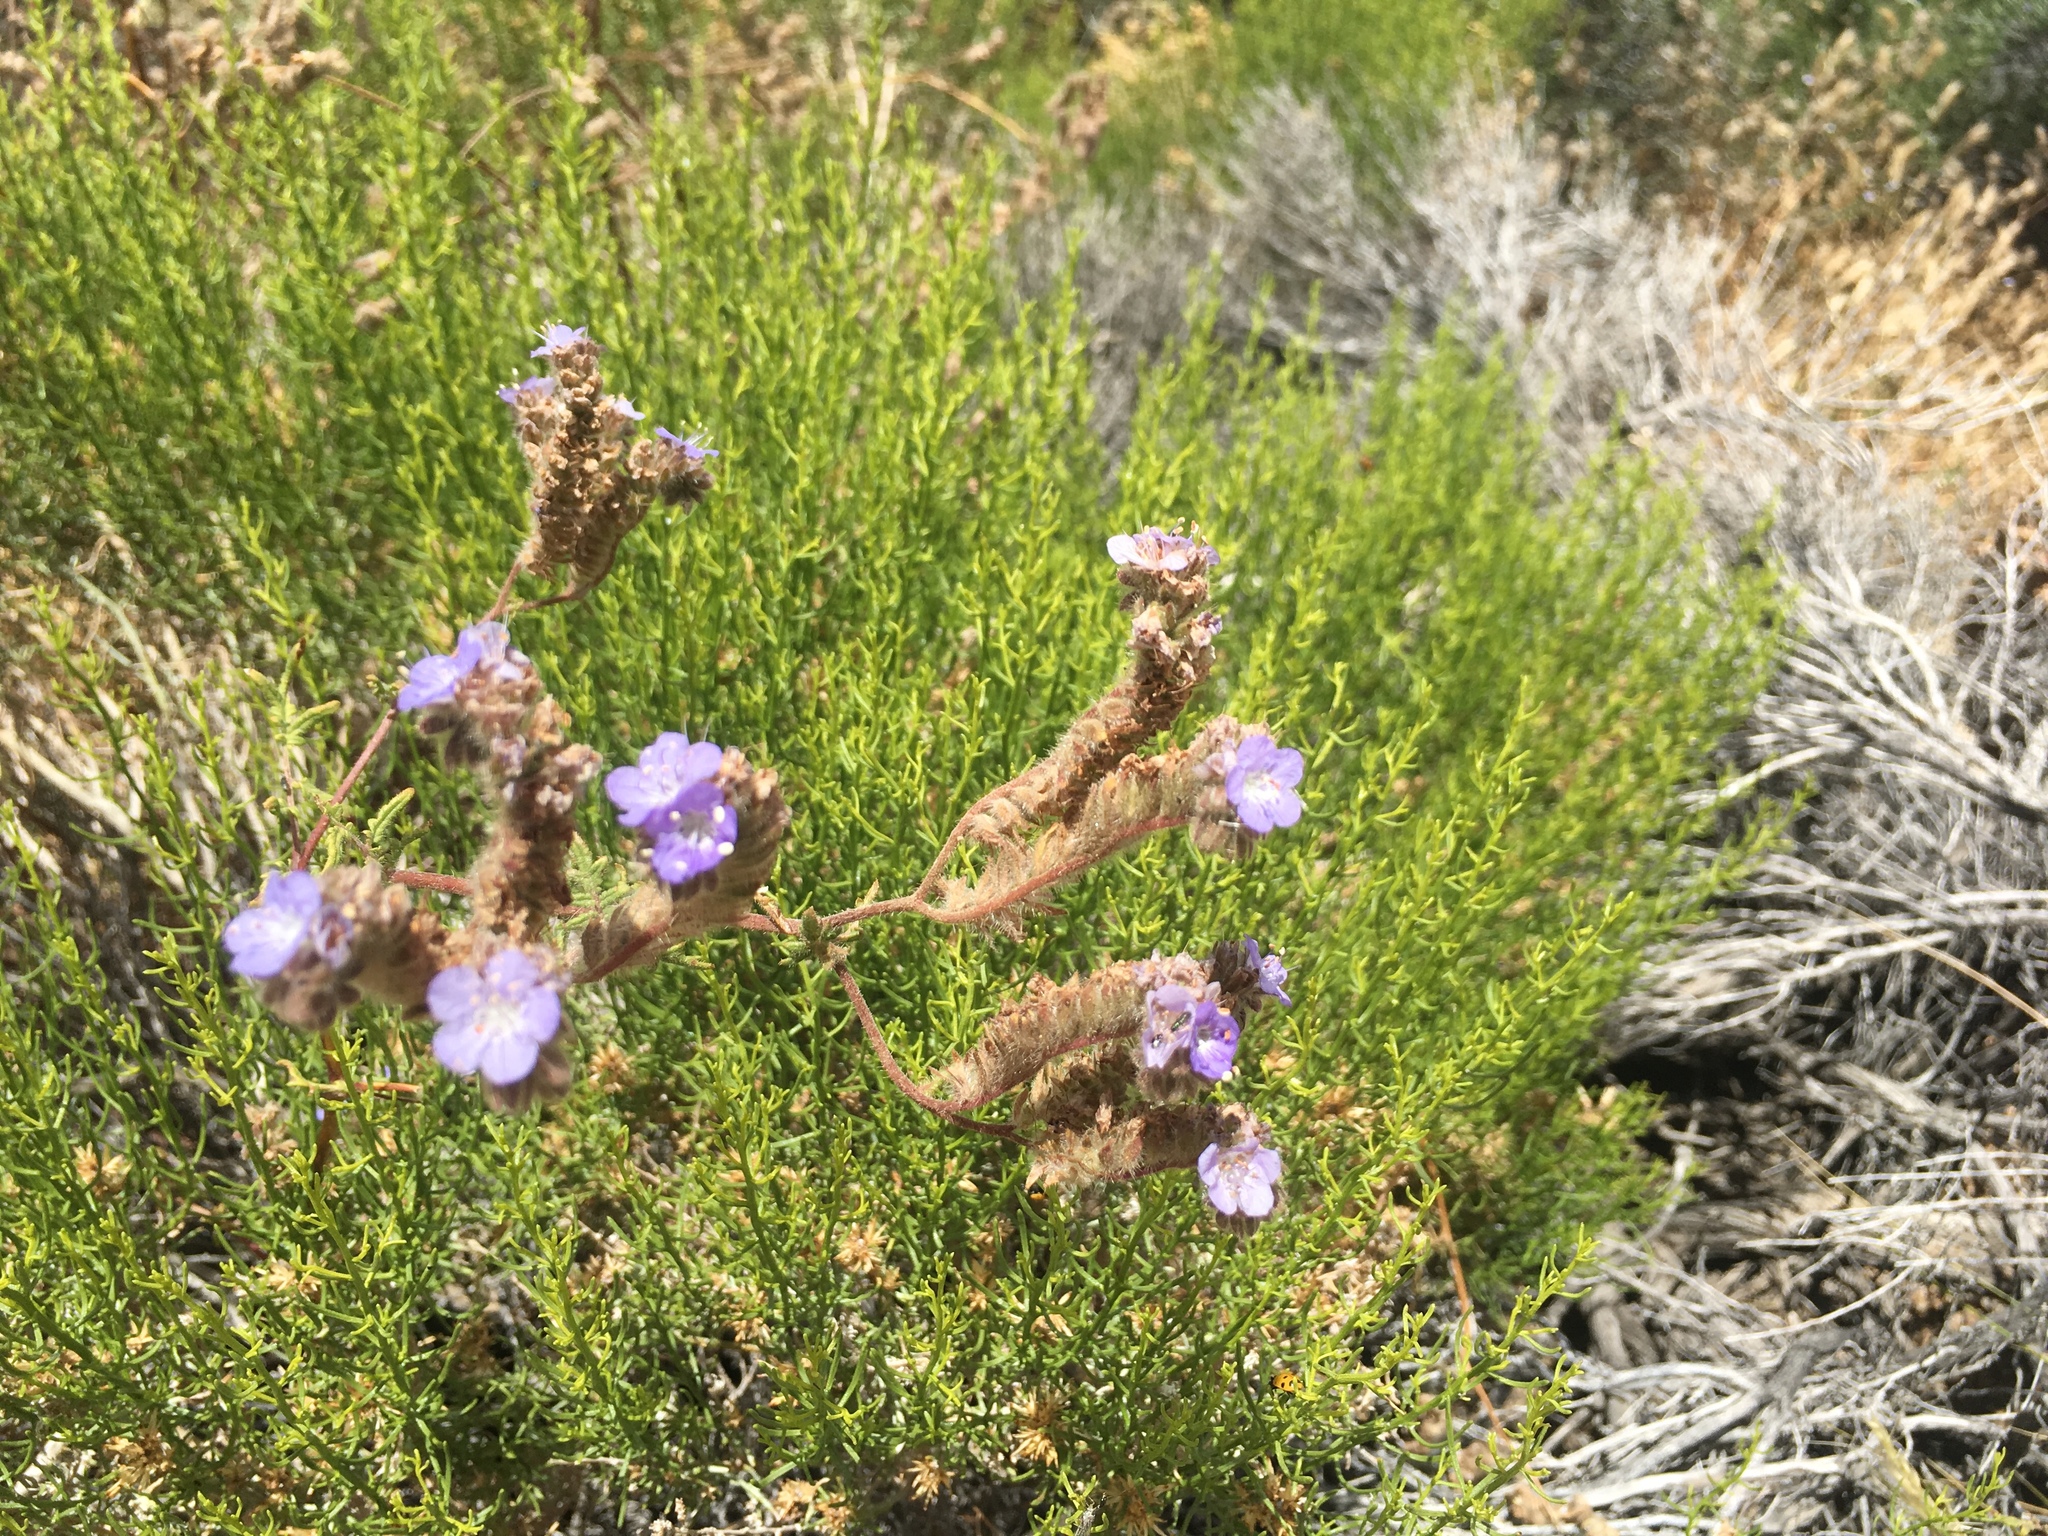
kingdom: Plantae
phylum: Tracheophyta
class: Magnoliopsida
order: Boraginales
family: Hydrophyllaceae
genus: Phacelia
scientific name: Phacelia distans
